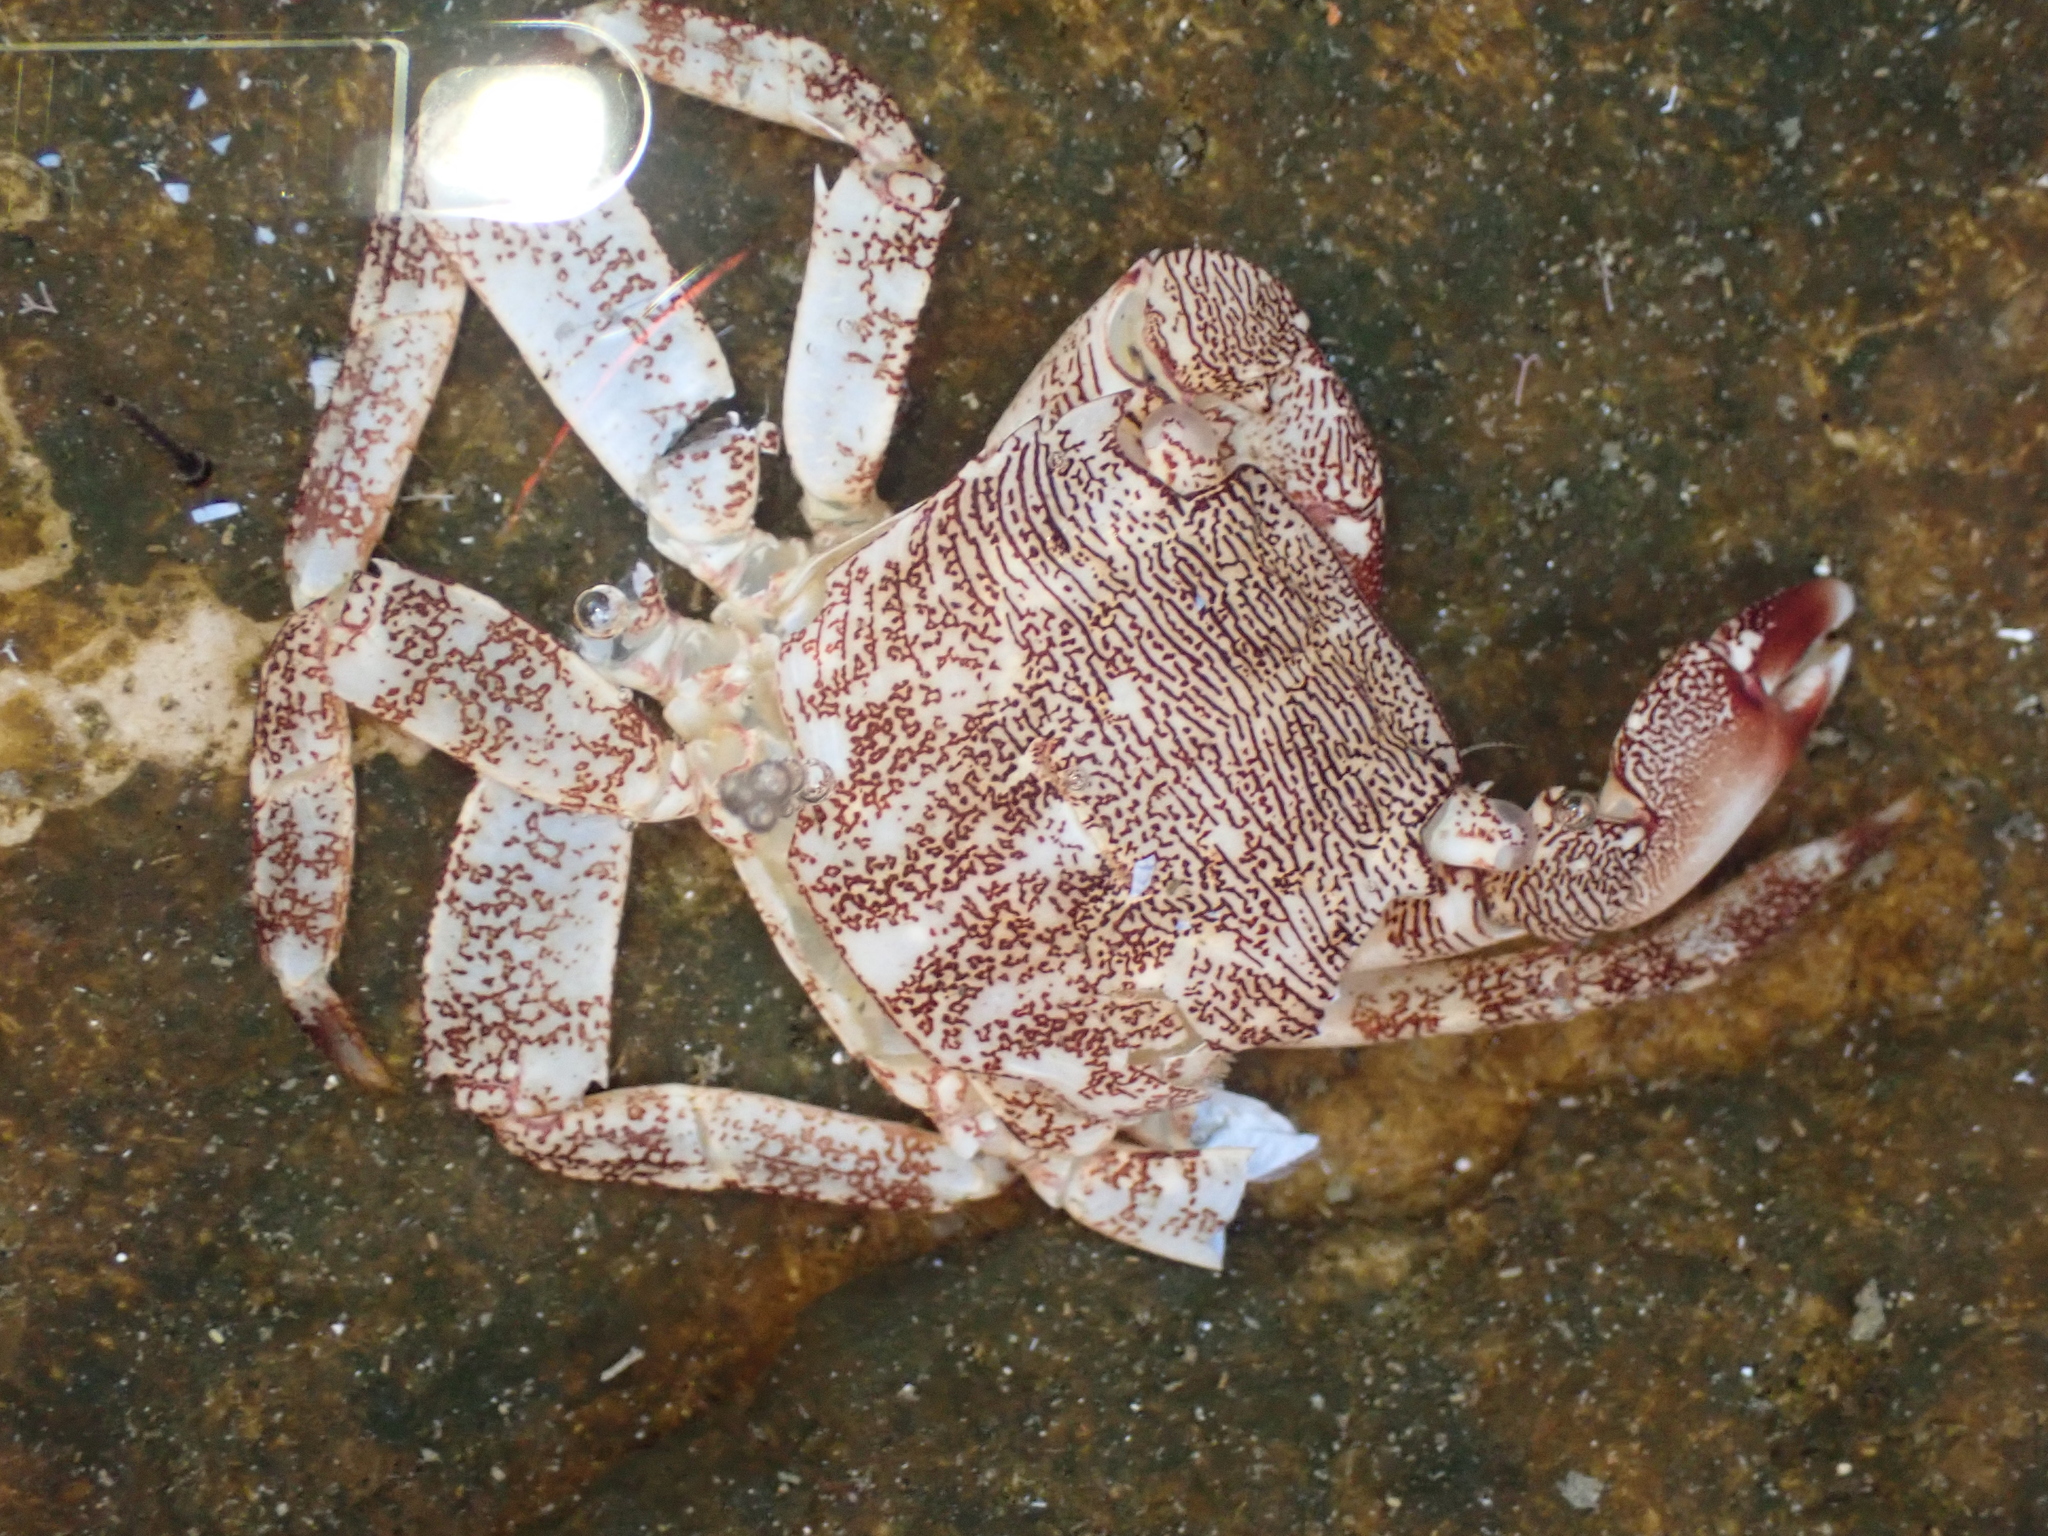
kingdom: Animalia
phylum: Arthropoda
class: Malacostraca
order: Decapoda
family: Grapsidae
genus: Pachygrapsus
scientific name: Pachygrapsus marmoratus
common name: Marbled rock crab
